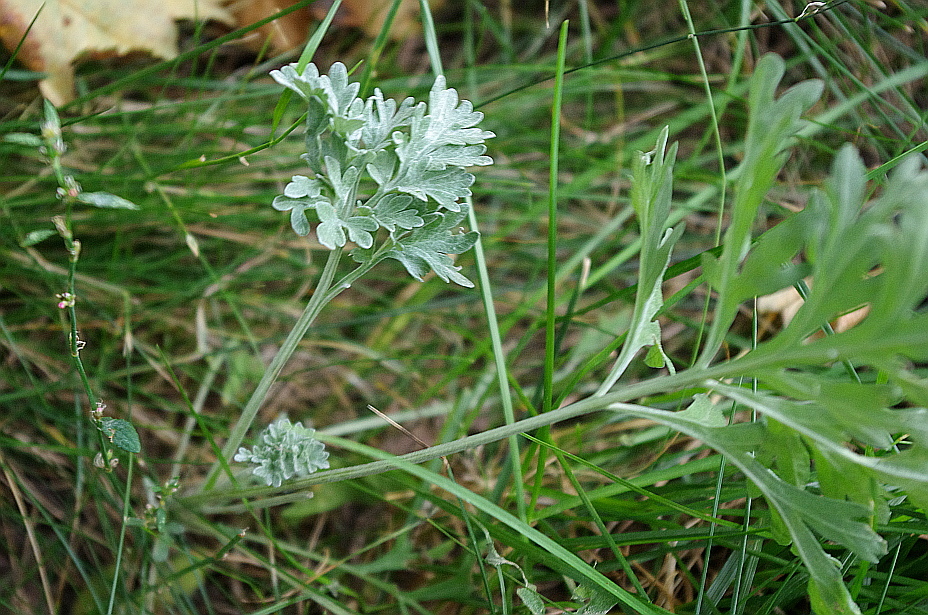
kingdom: Plantae
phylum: Tracheophyta
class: Magnoliopsida
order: Asterales
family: Asteraceae
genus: Artemisia
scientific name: Artemisia absinthium
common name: Wormwood
